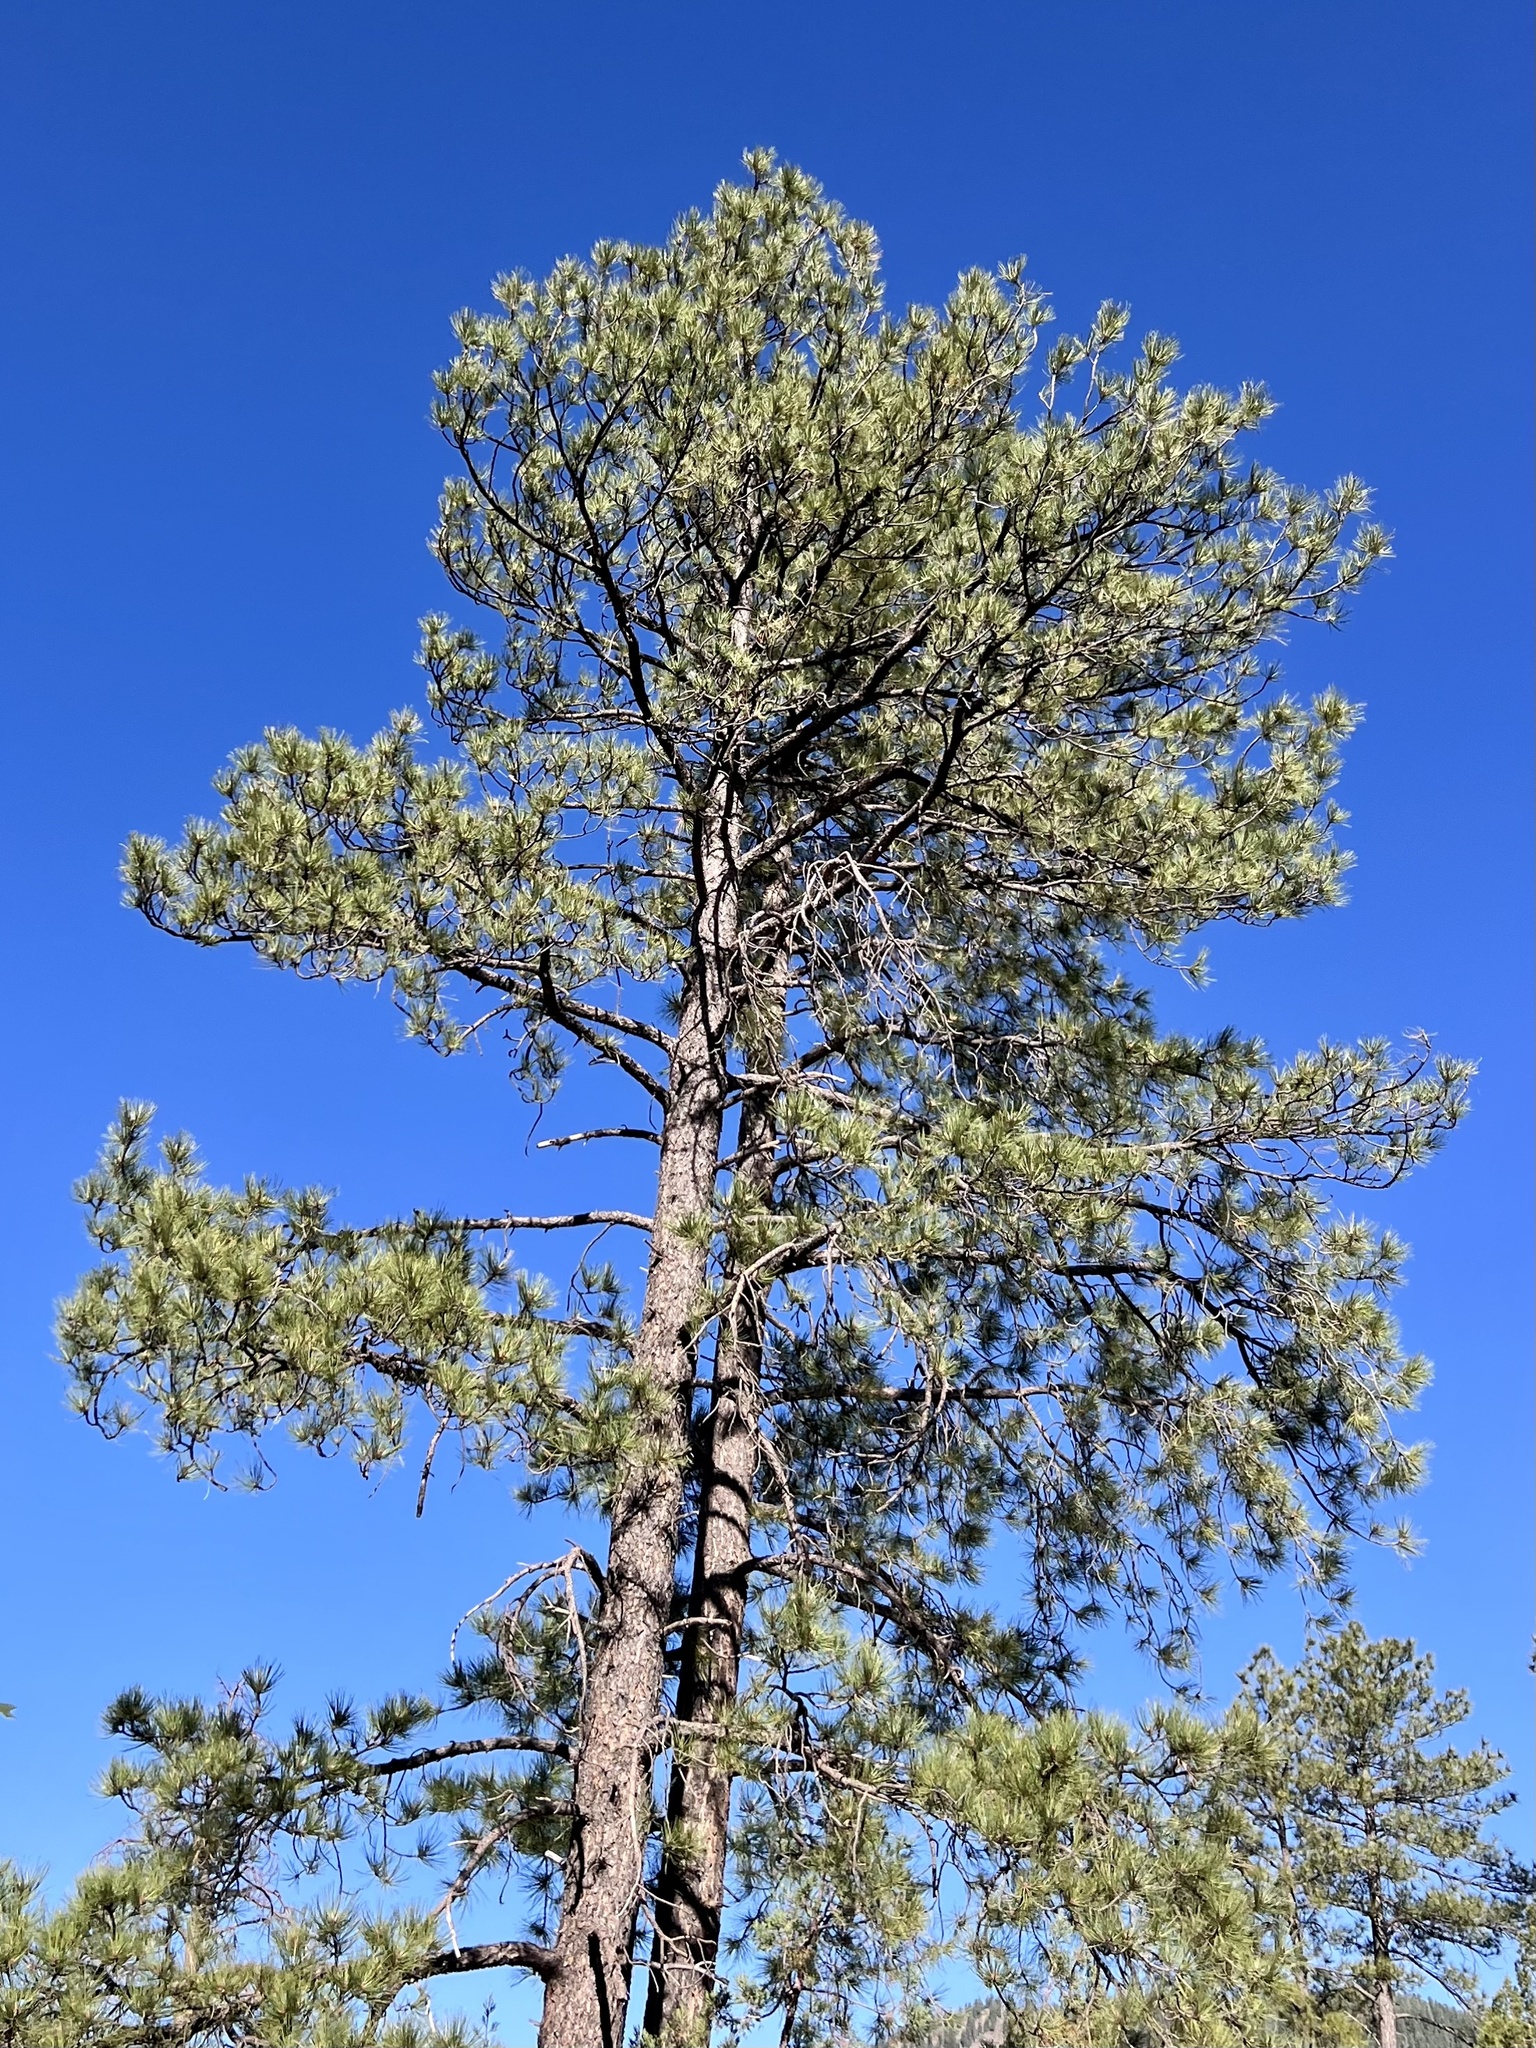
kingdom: Plantae
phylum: Tracheophyta
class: Pinopsida
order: Pinales
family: Pinaceae
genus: Pinus
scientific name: Pinus ponderosa
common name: Western yellow-pine
